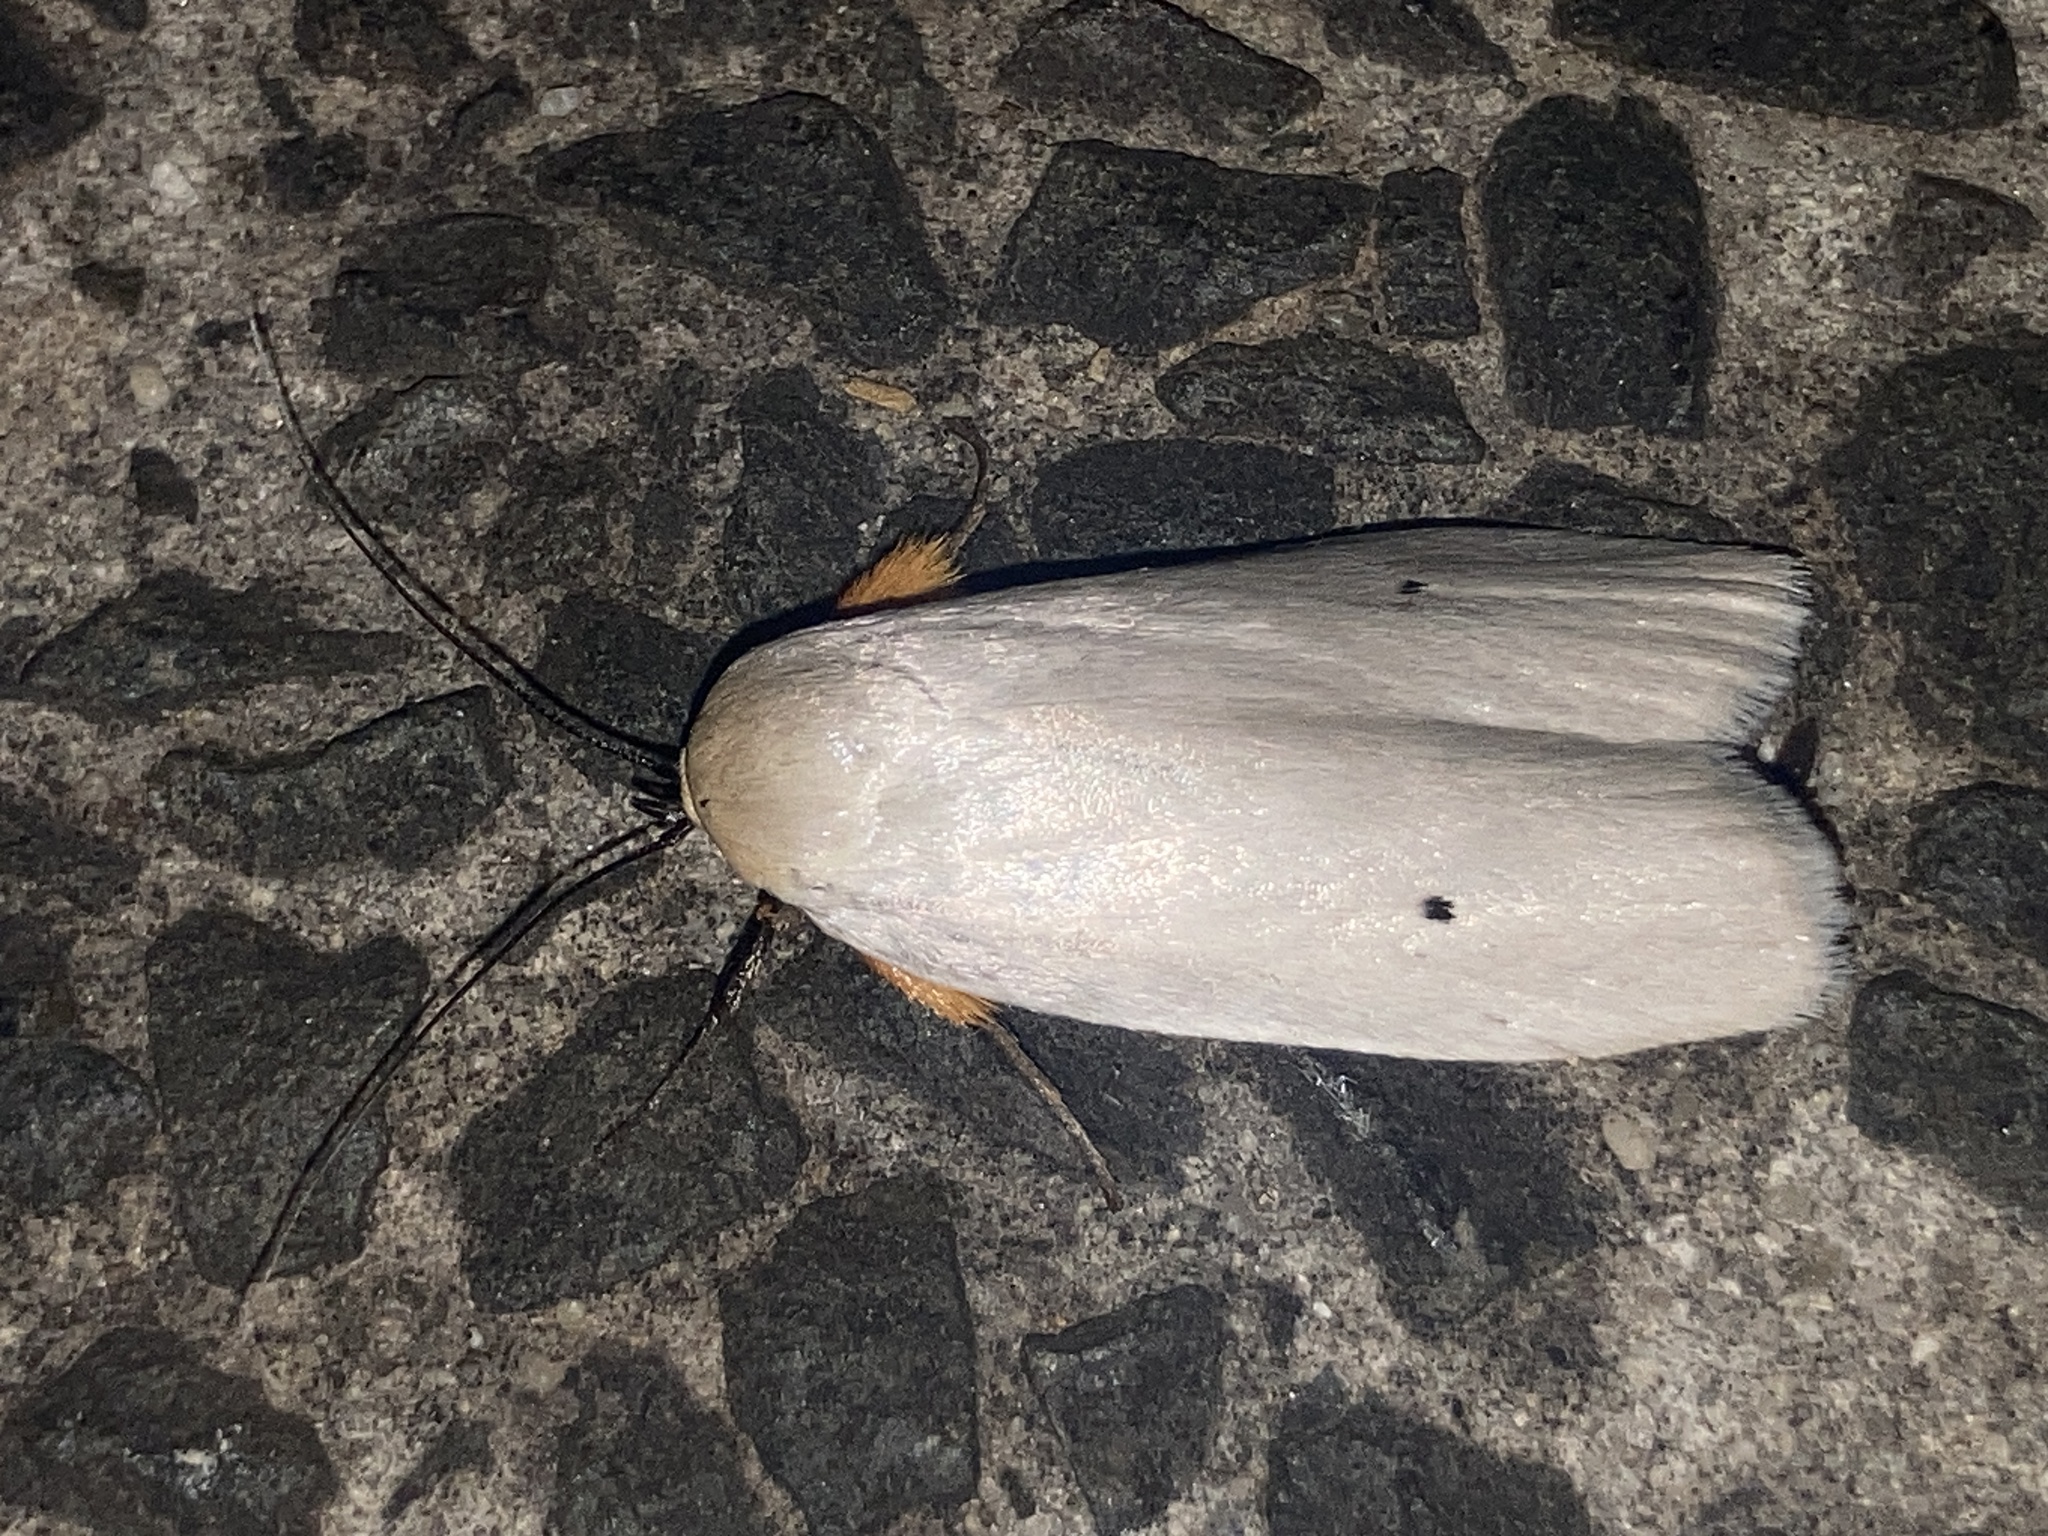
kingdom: Animalia
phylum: Arthropoda
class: Insecta
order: Lepidoptera
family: Xyloryctidae
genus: Maroga
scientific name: Maroga melanostigma
